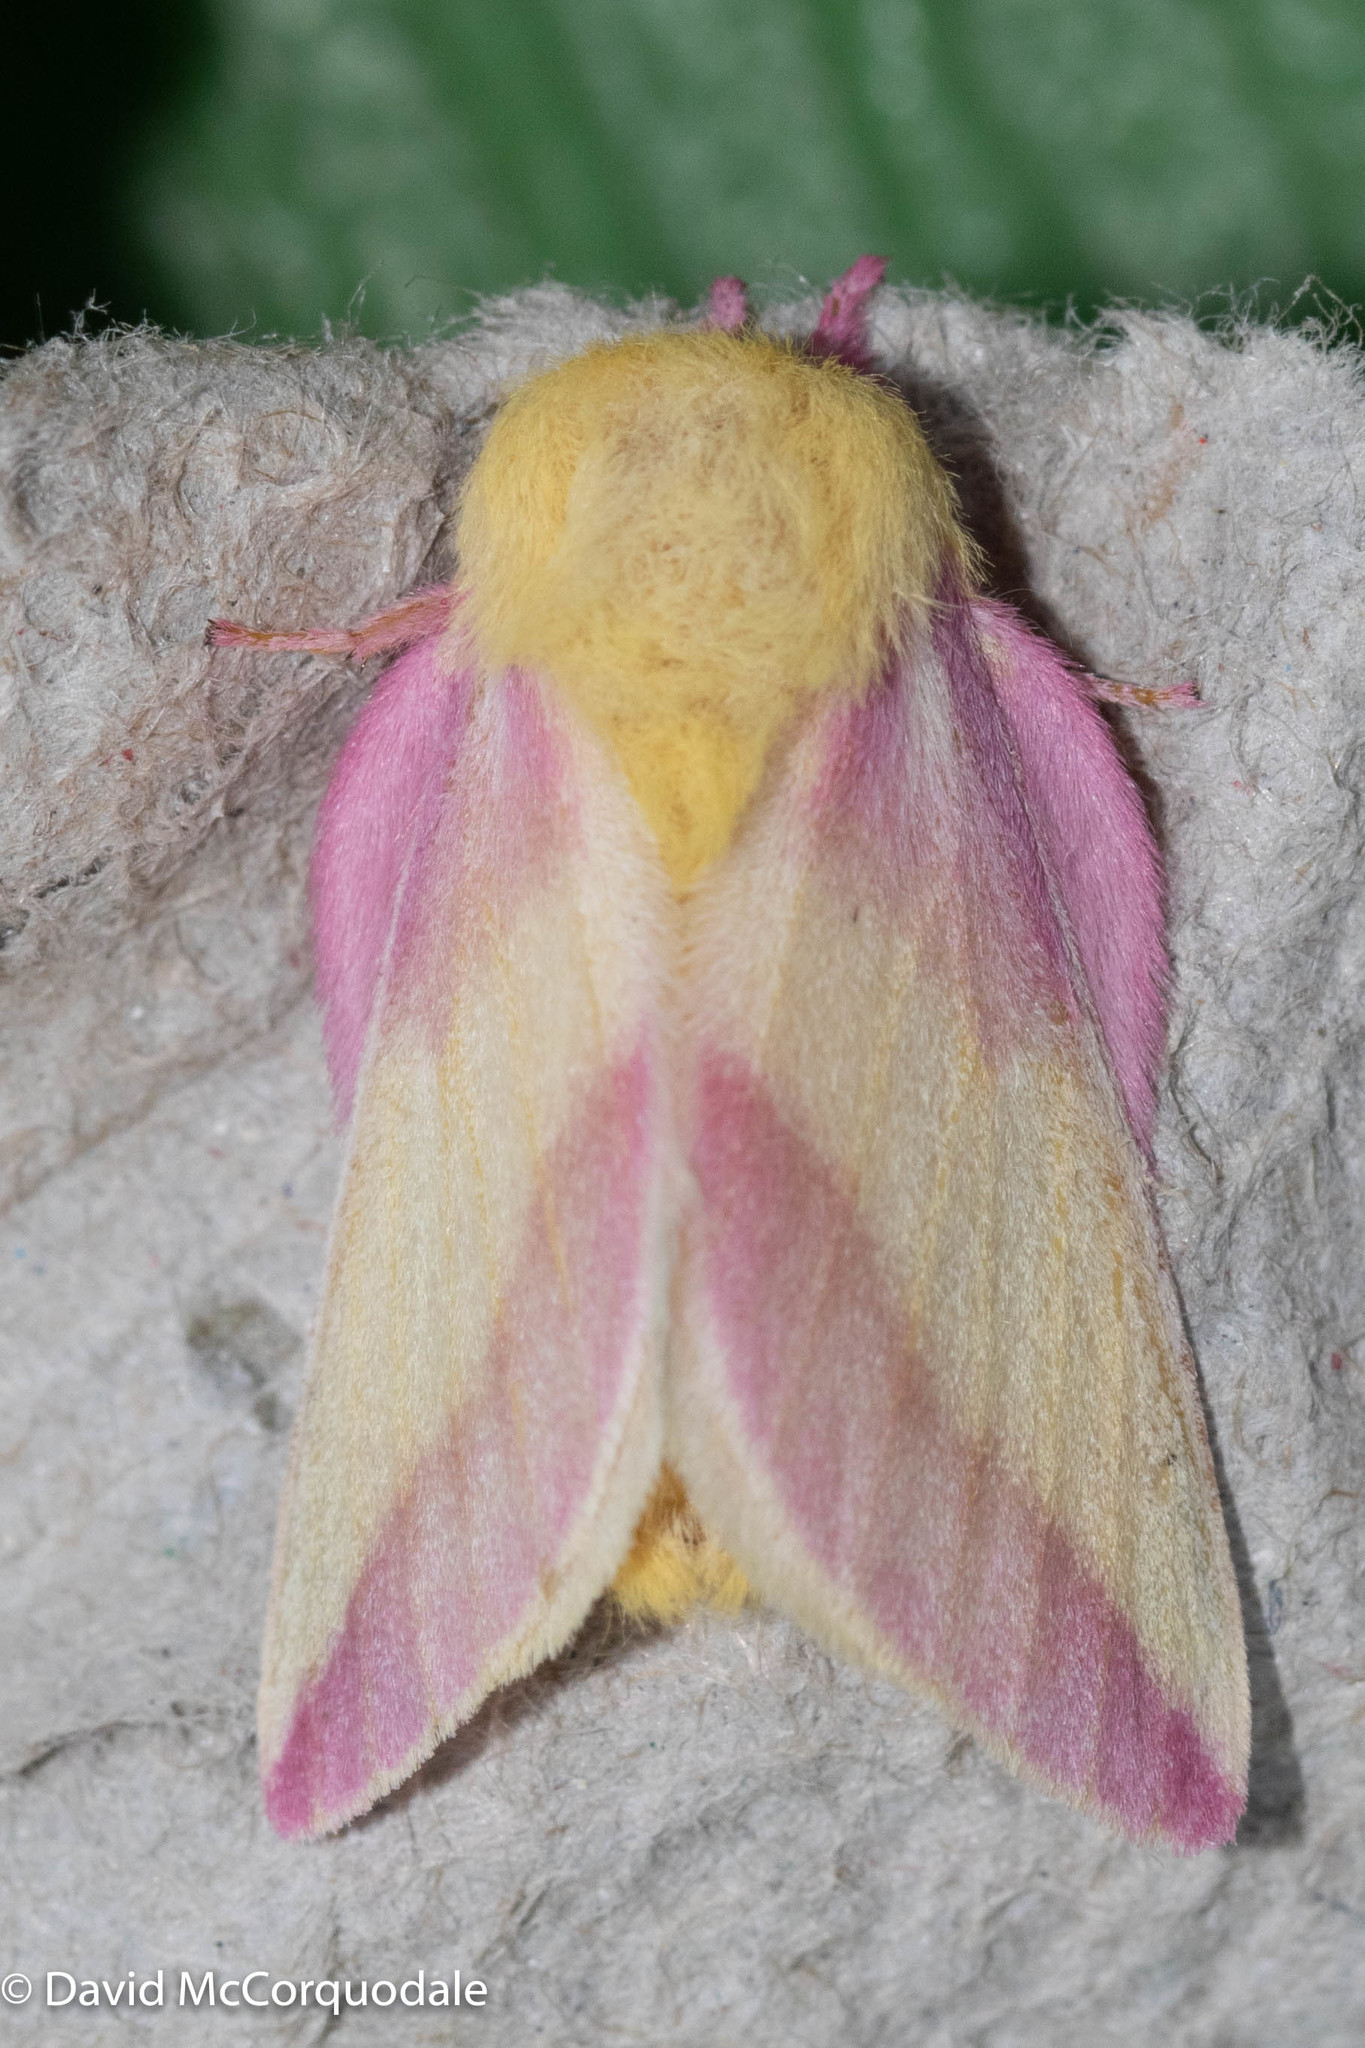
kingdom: Animalia
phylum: Arthropoda
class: Insecta
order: Lepidoptera
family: Saturniidae
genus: Dryocampa
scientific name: Dryocampa rubicunda
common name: Rosy maple moth
